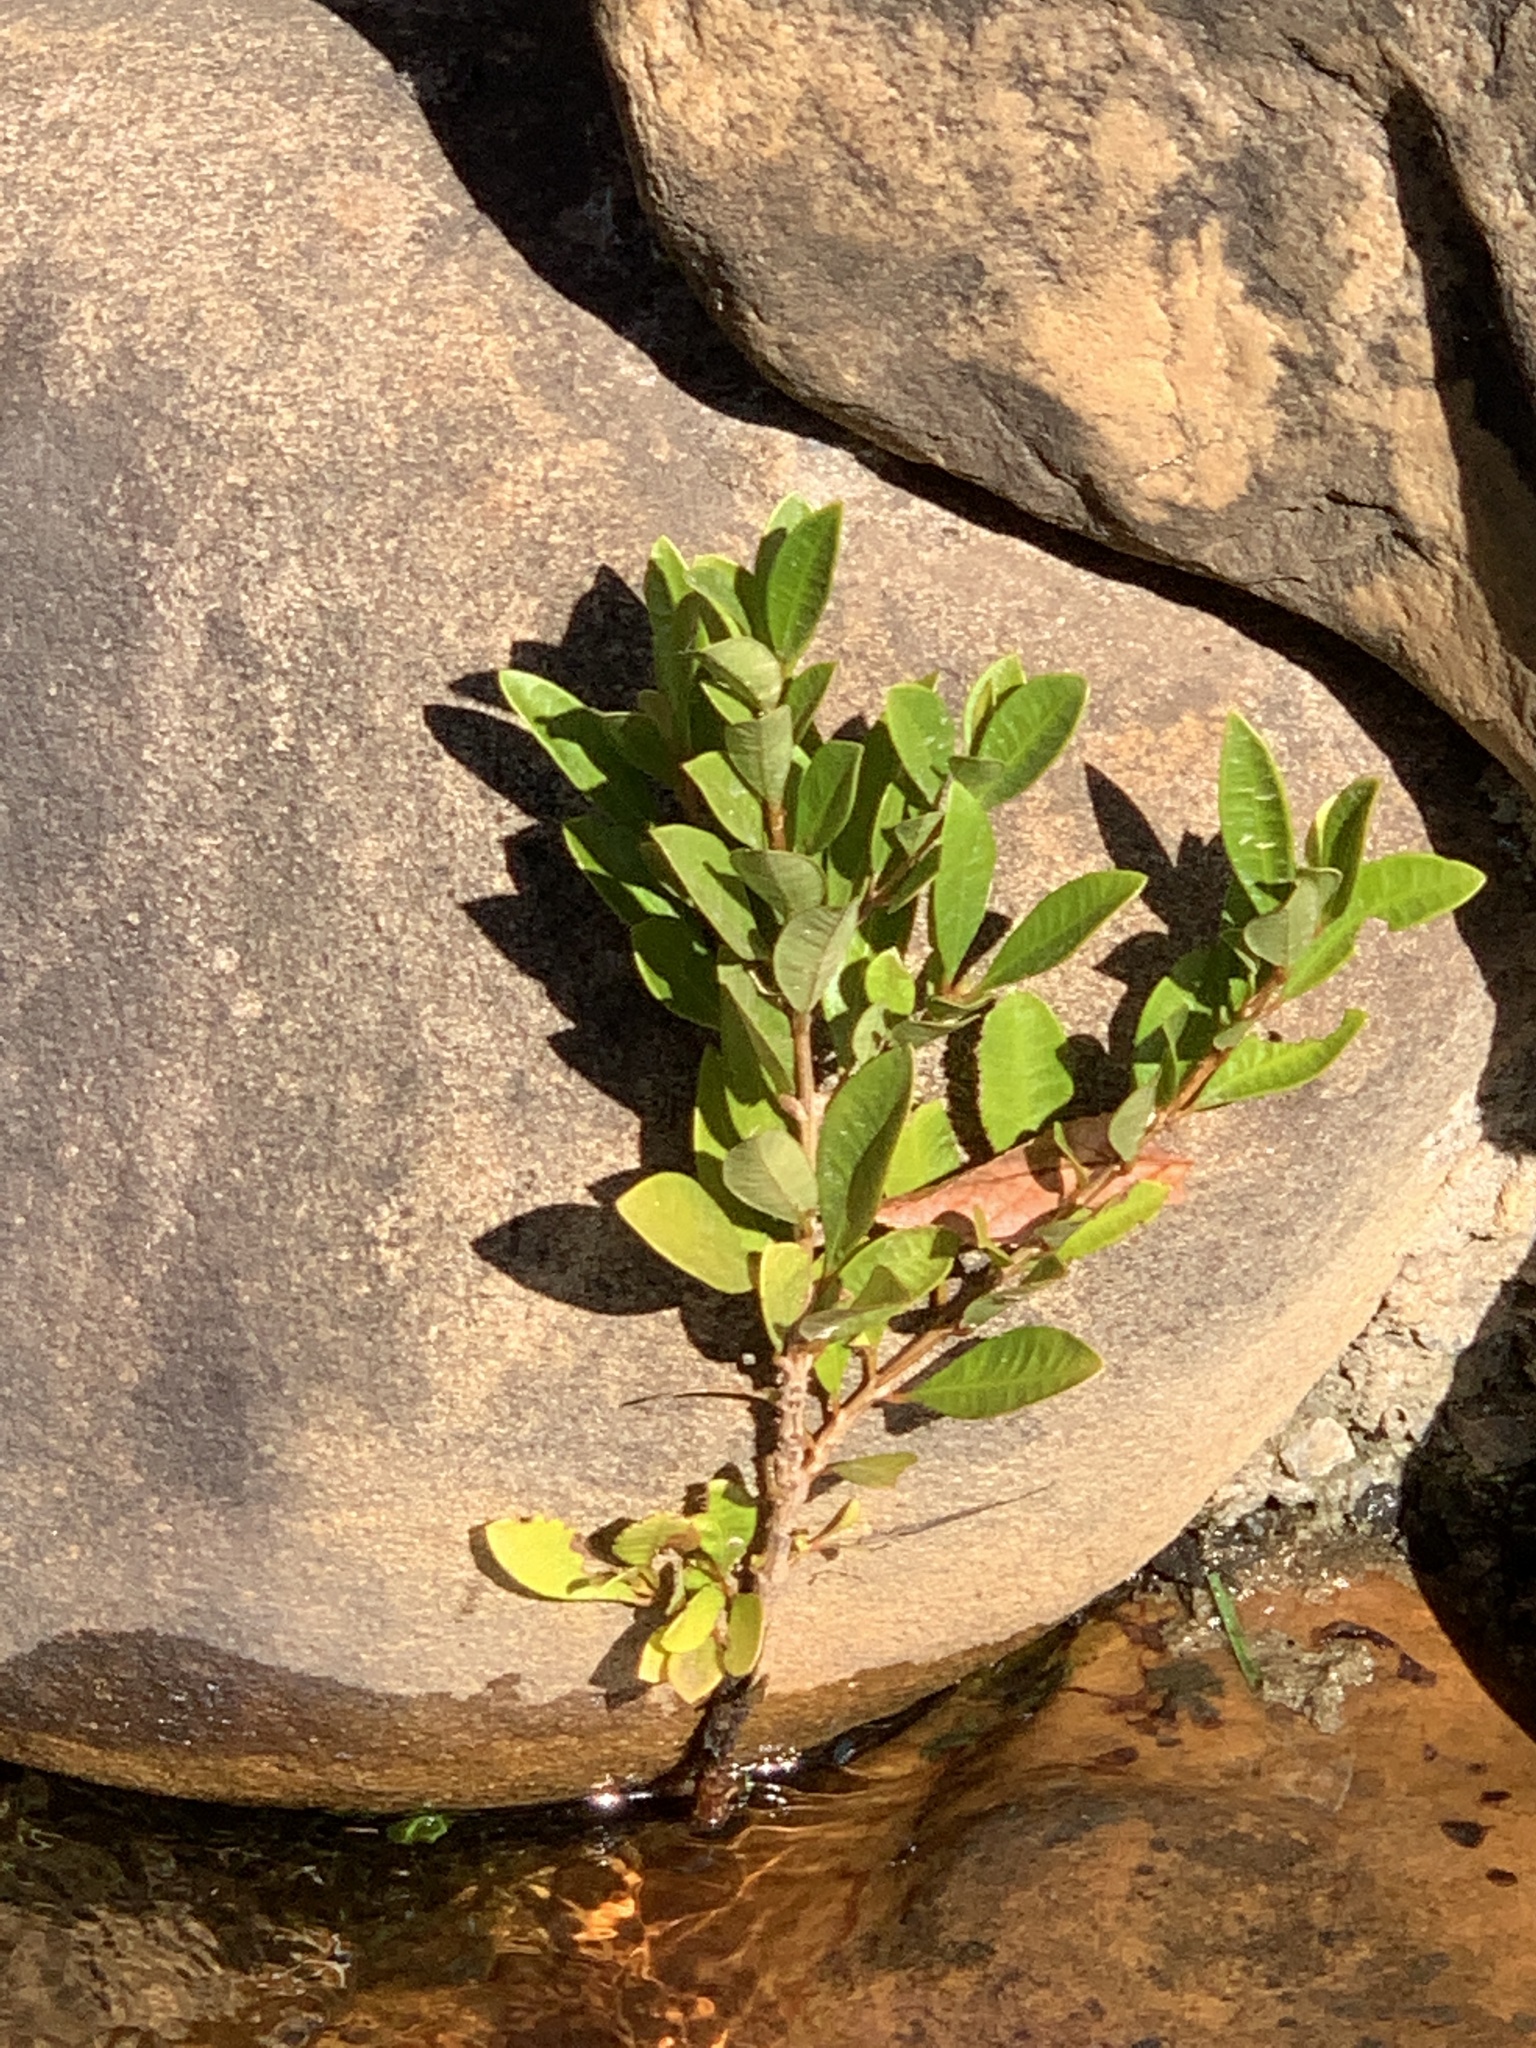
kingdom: Plantae
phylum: Tracheophyta
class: Magnoliopsida
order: Myrtales
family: Myrtaceae
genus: Syzygium
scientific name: Syzygium australe
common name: Australian brush-cherry
